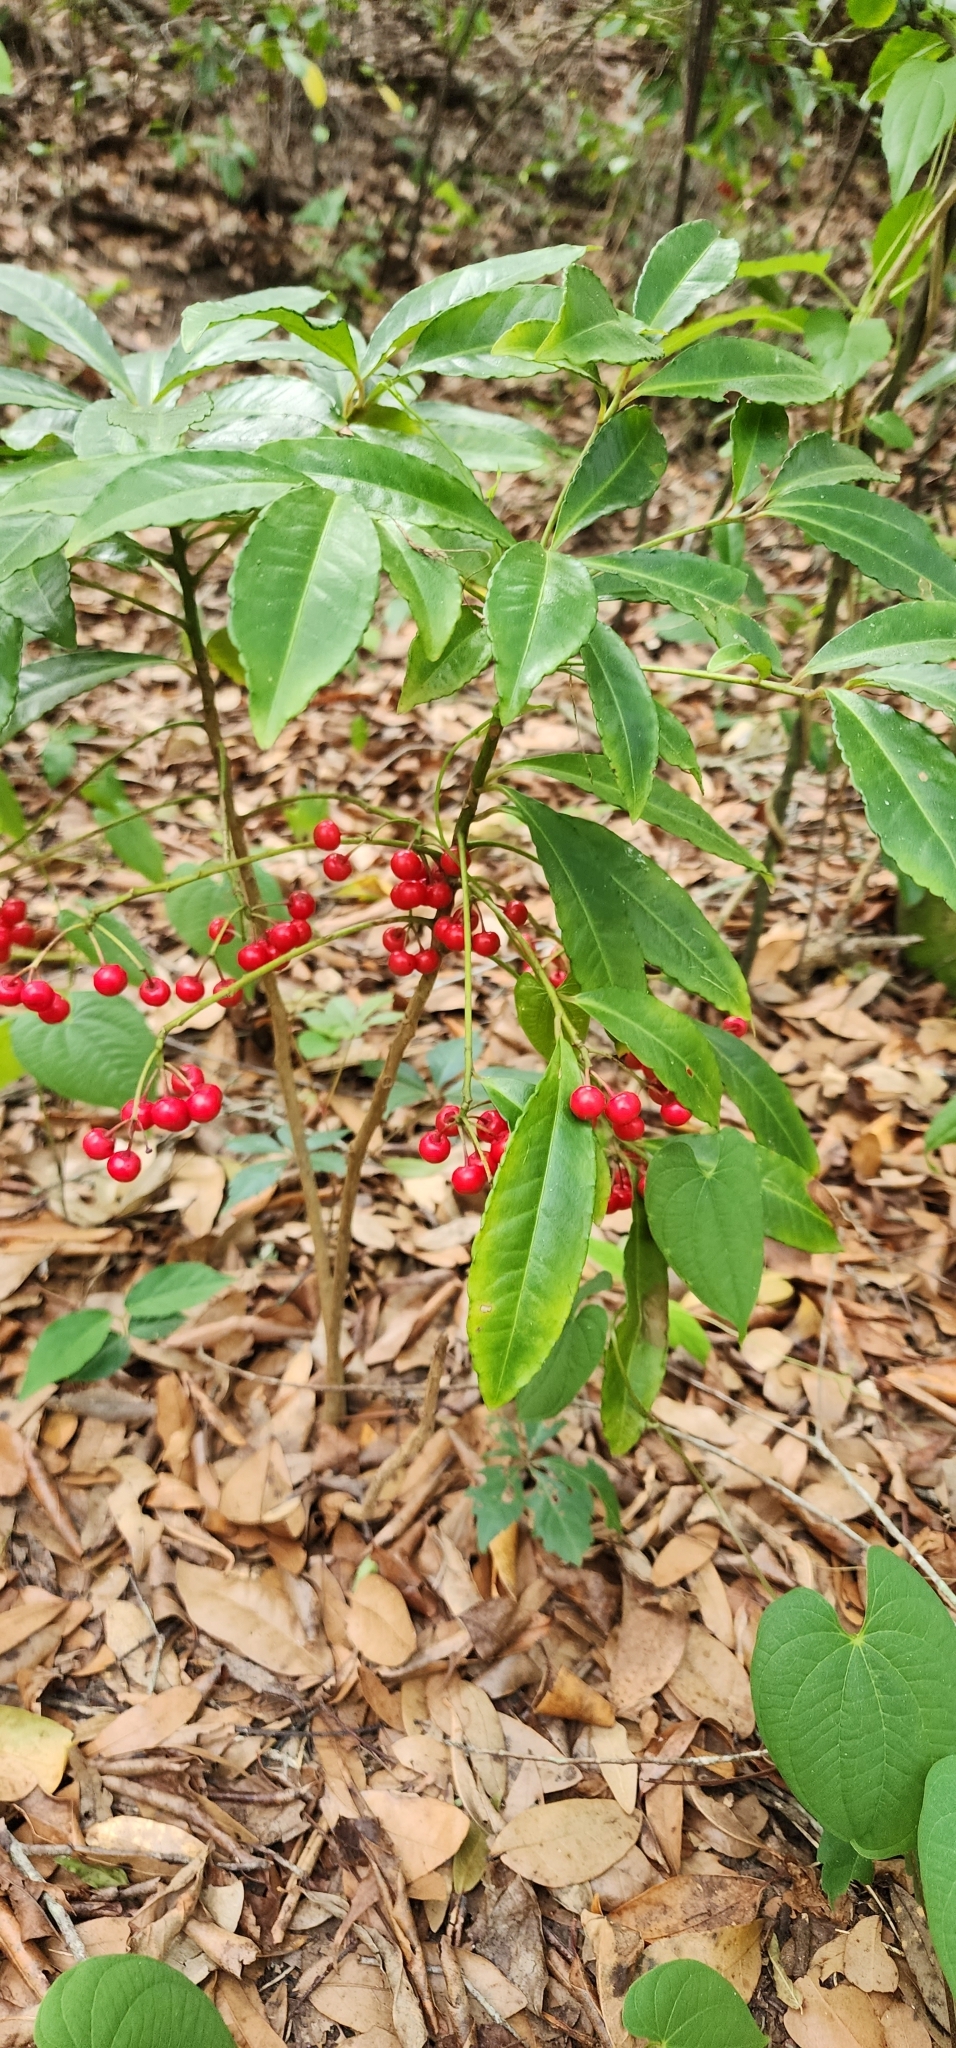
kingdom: Plantae
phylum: Tracheophyta
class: Magnoliopsida
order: Ericales
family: Primulaceae
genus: Ardisia
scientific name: Ardisia crenata
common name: Hen's eyes
